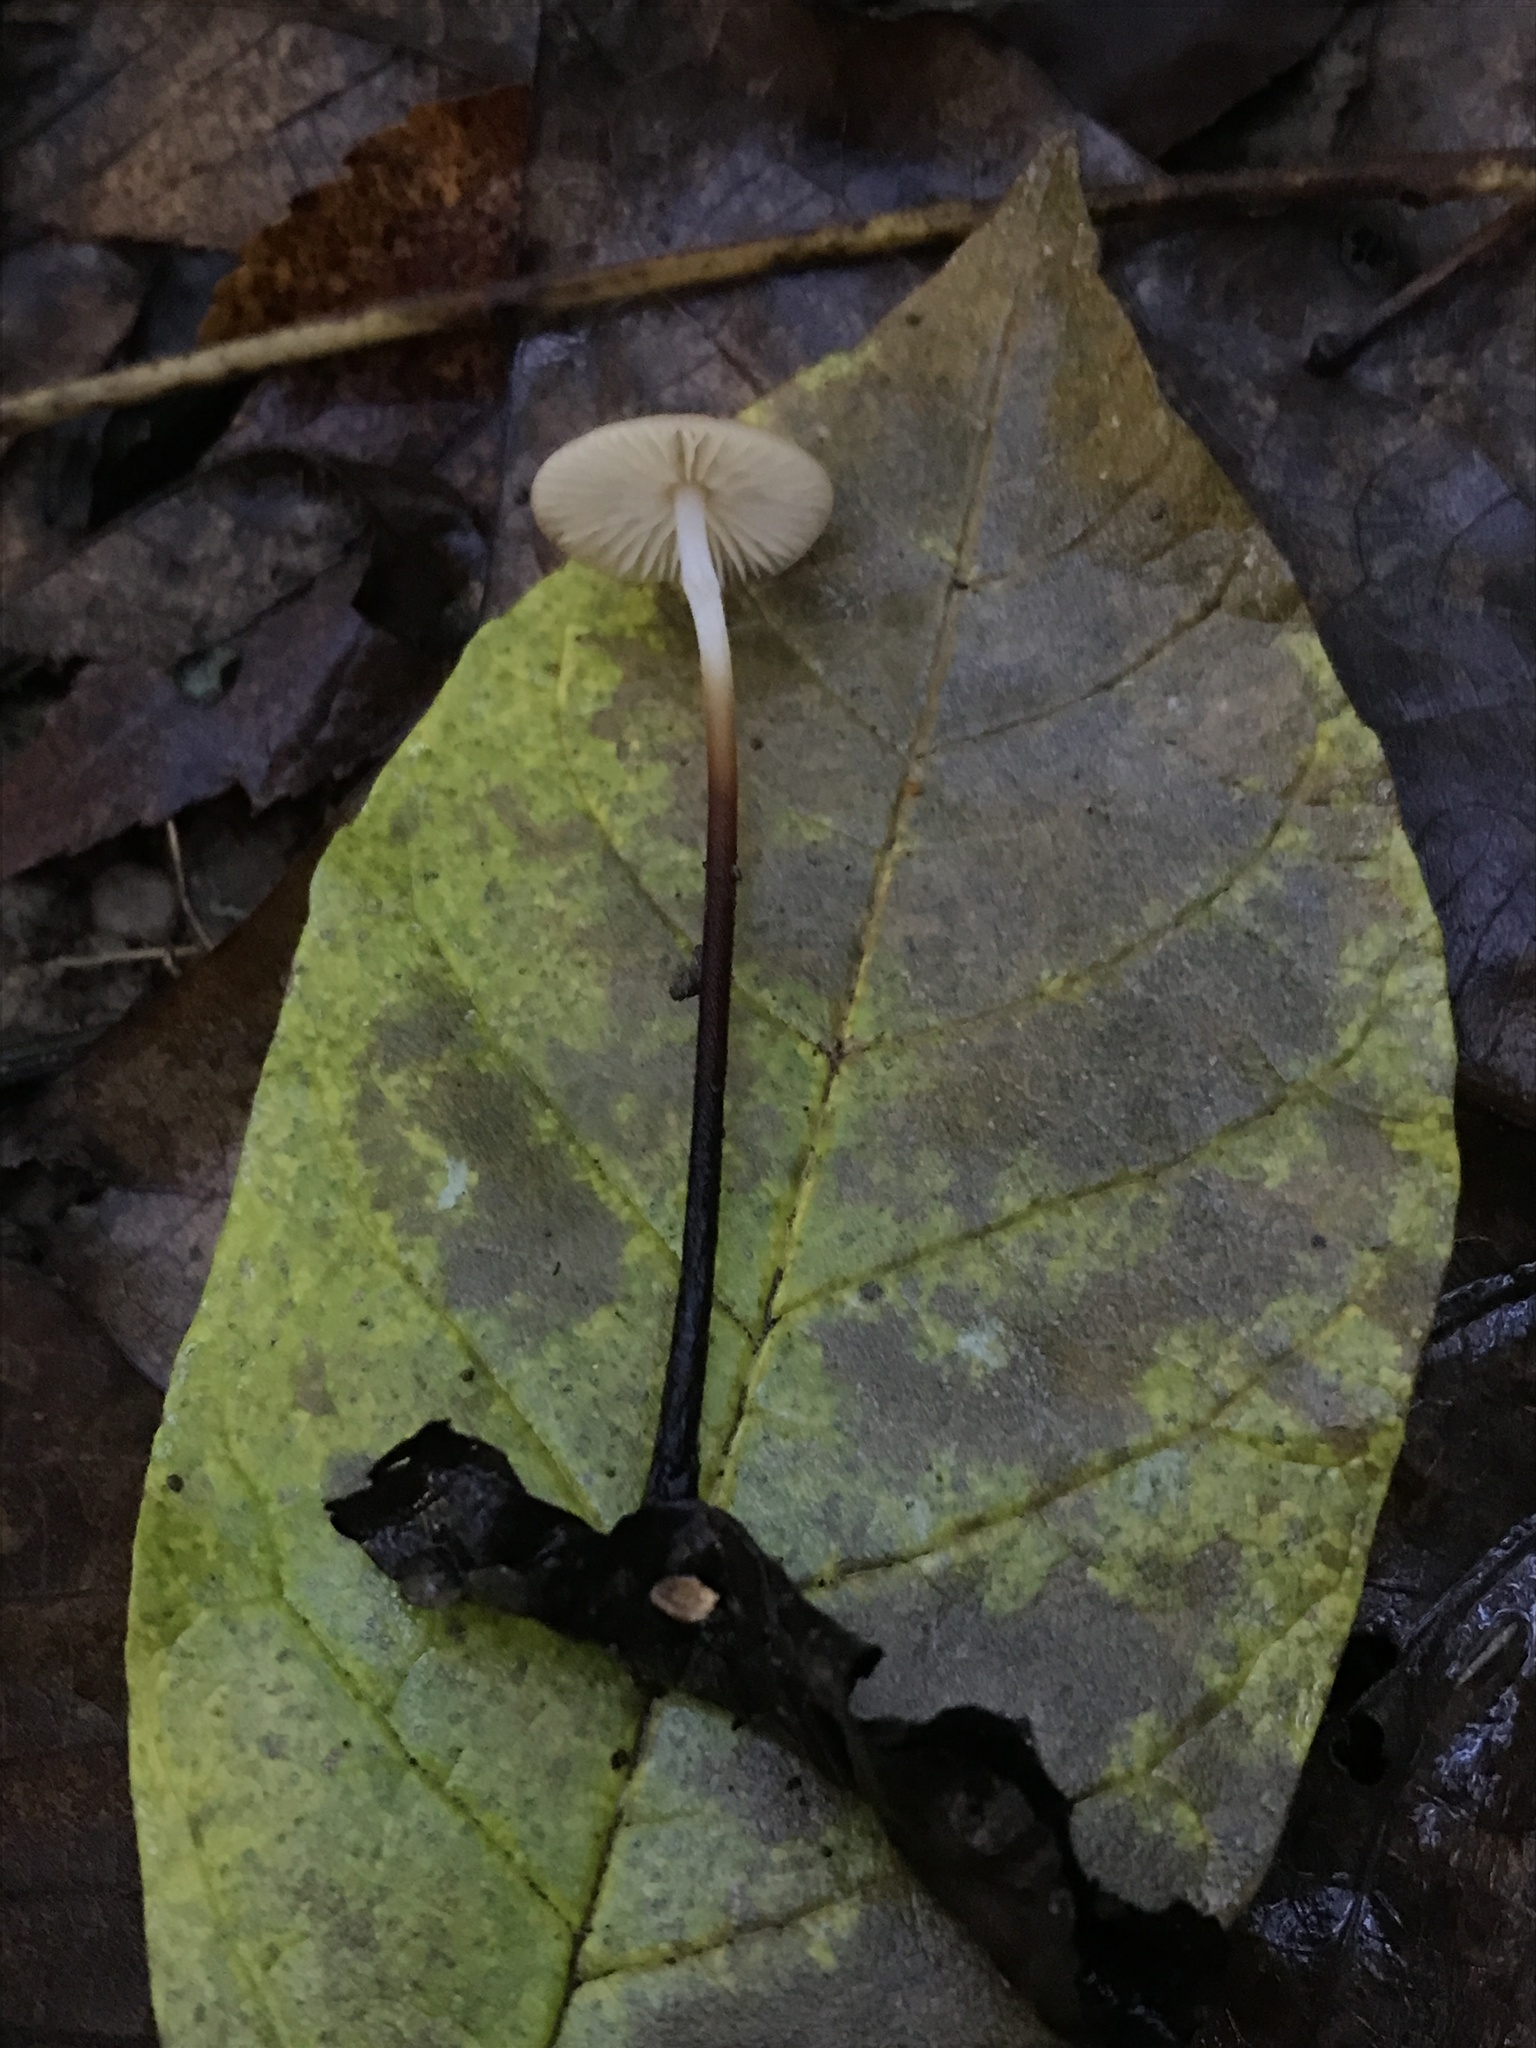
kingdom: Fungi
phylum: Basidiomycota
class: Agaricomycetes
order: Agaricales
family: Physalacriaceae
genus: Rhizomarasmius
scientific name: Rhizomarasmius pyrrhocephalus
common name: Hairy long stem marasmius
